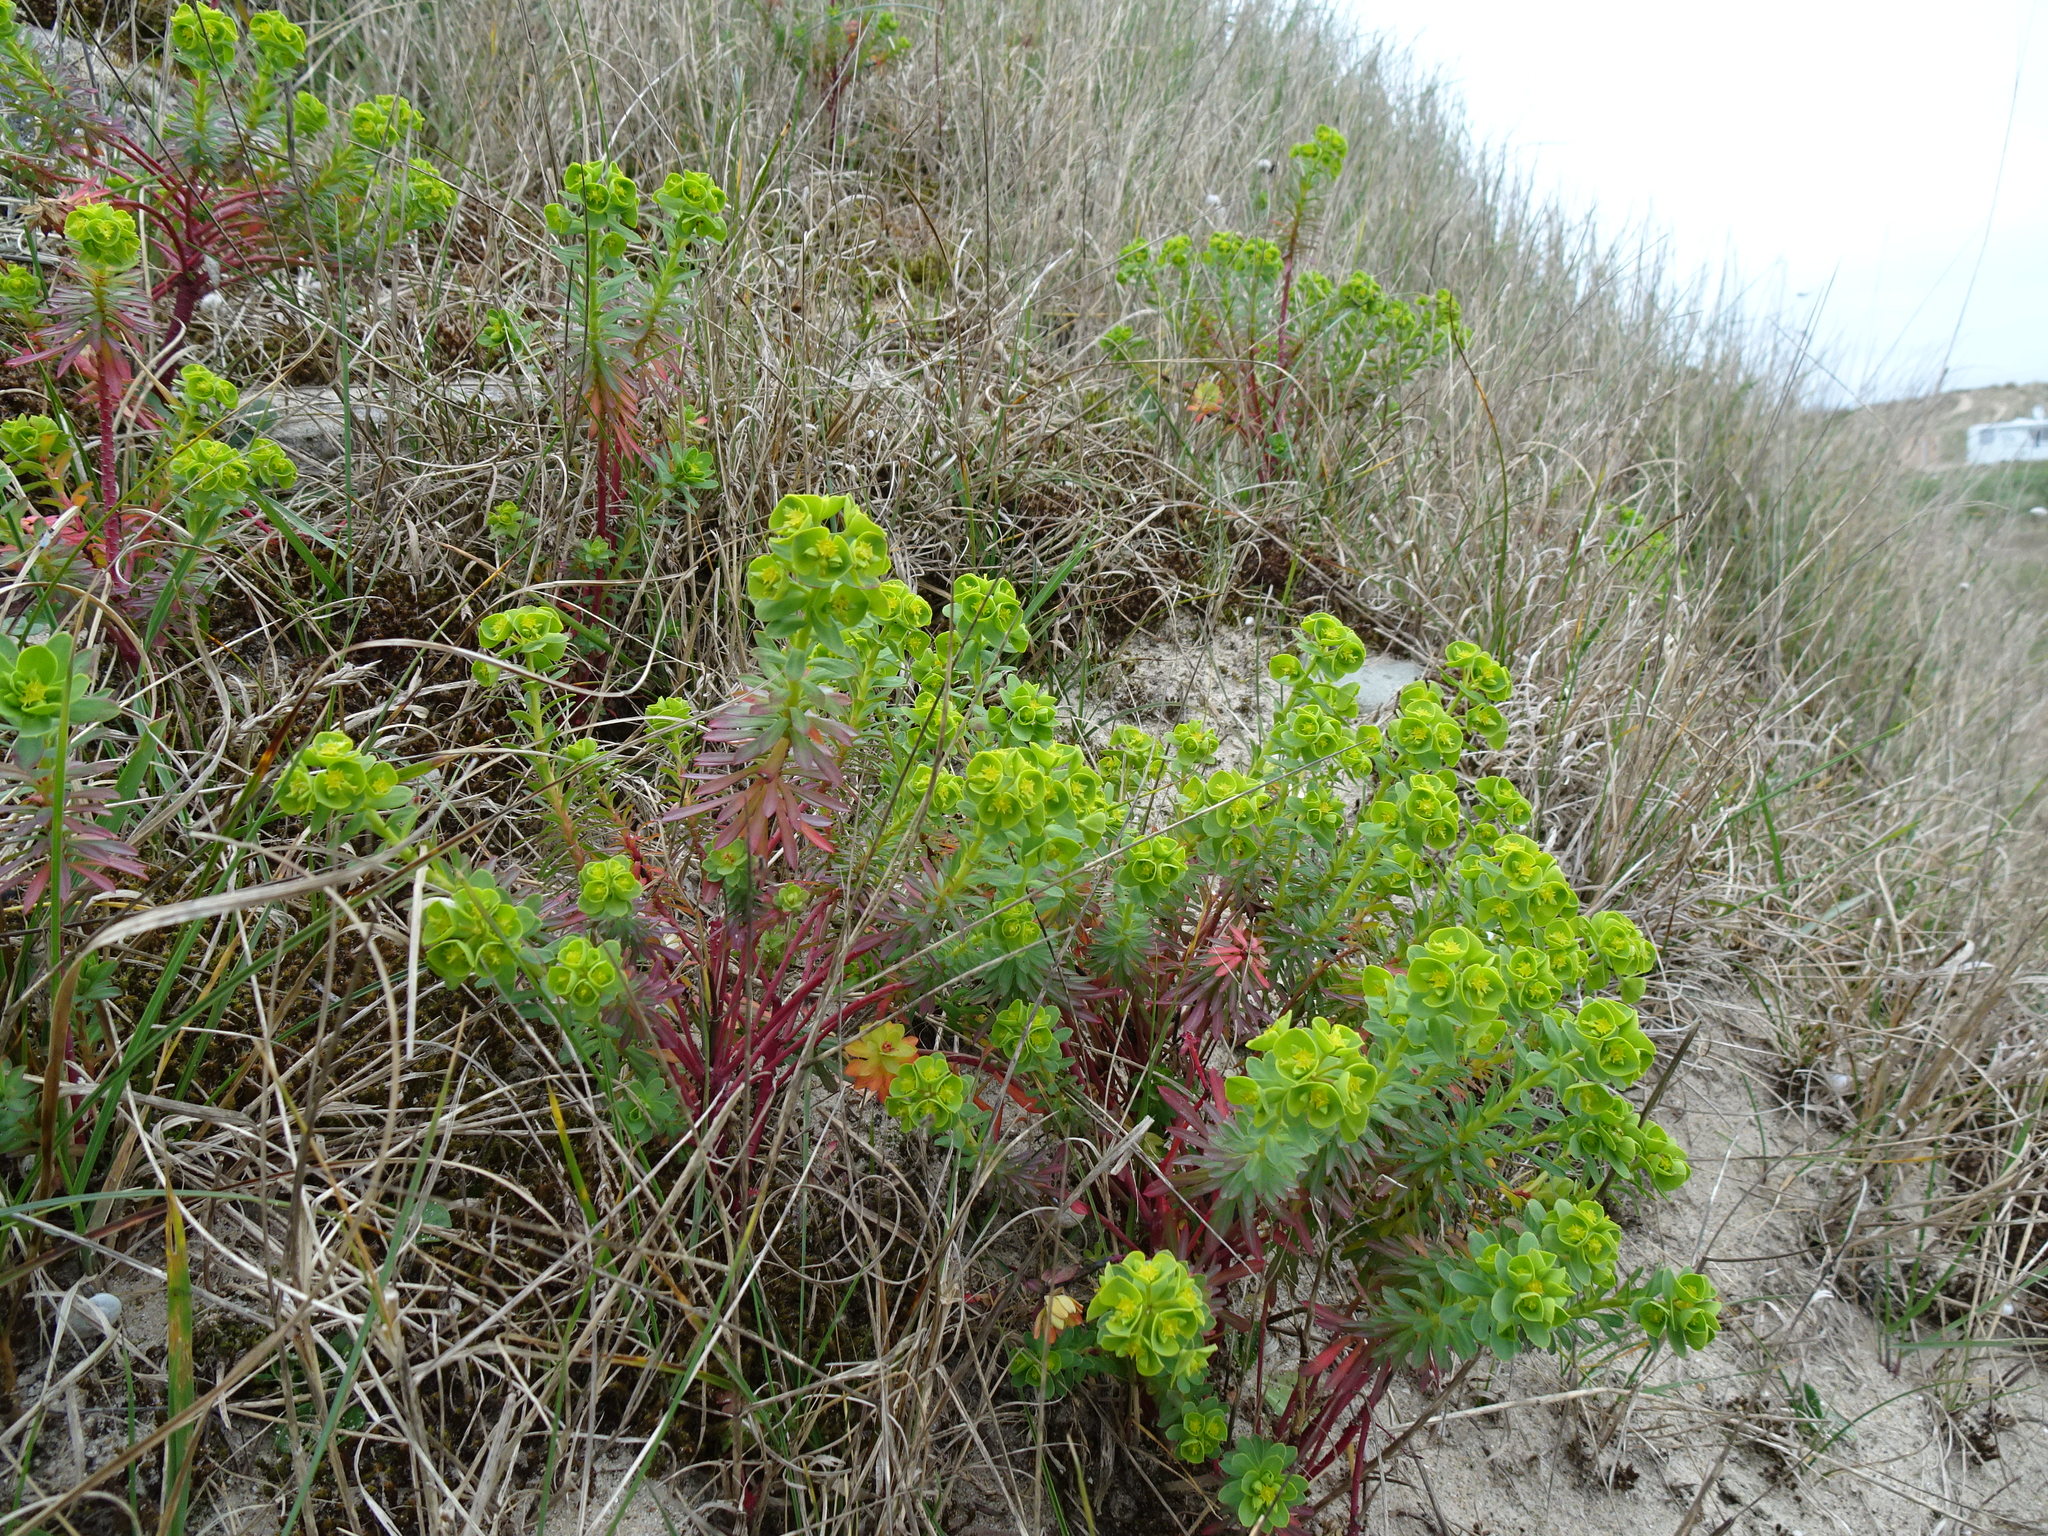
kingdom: Plantae
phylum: Tracheophyta
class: Magnoliopsida
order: Malpighiales
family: Euphorbiaceae
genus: Euphorbia
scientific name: Euphorbia portlandica
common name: Portland spurge
